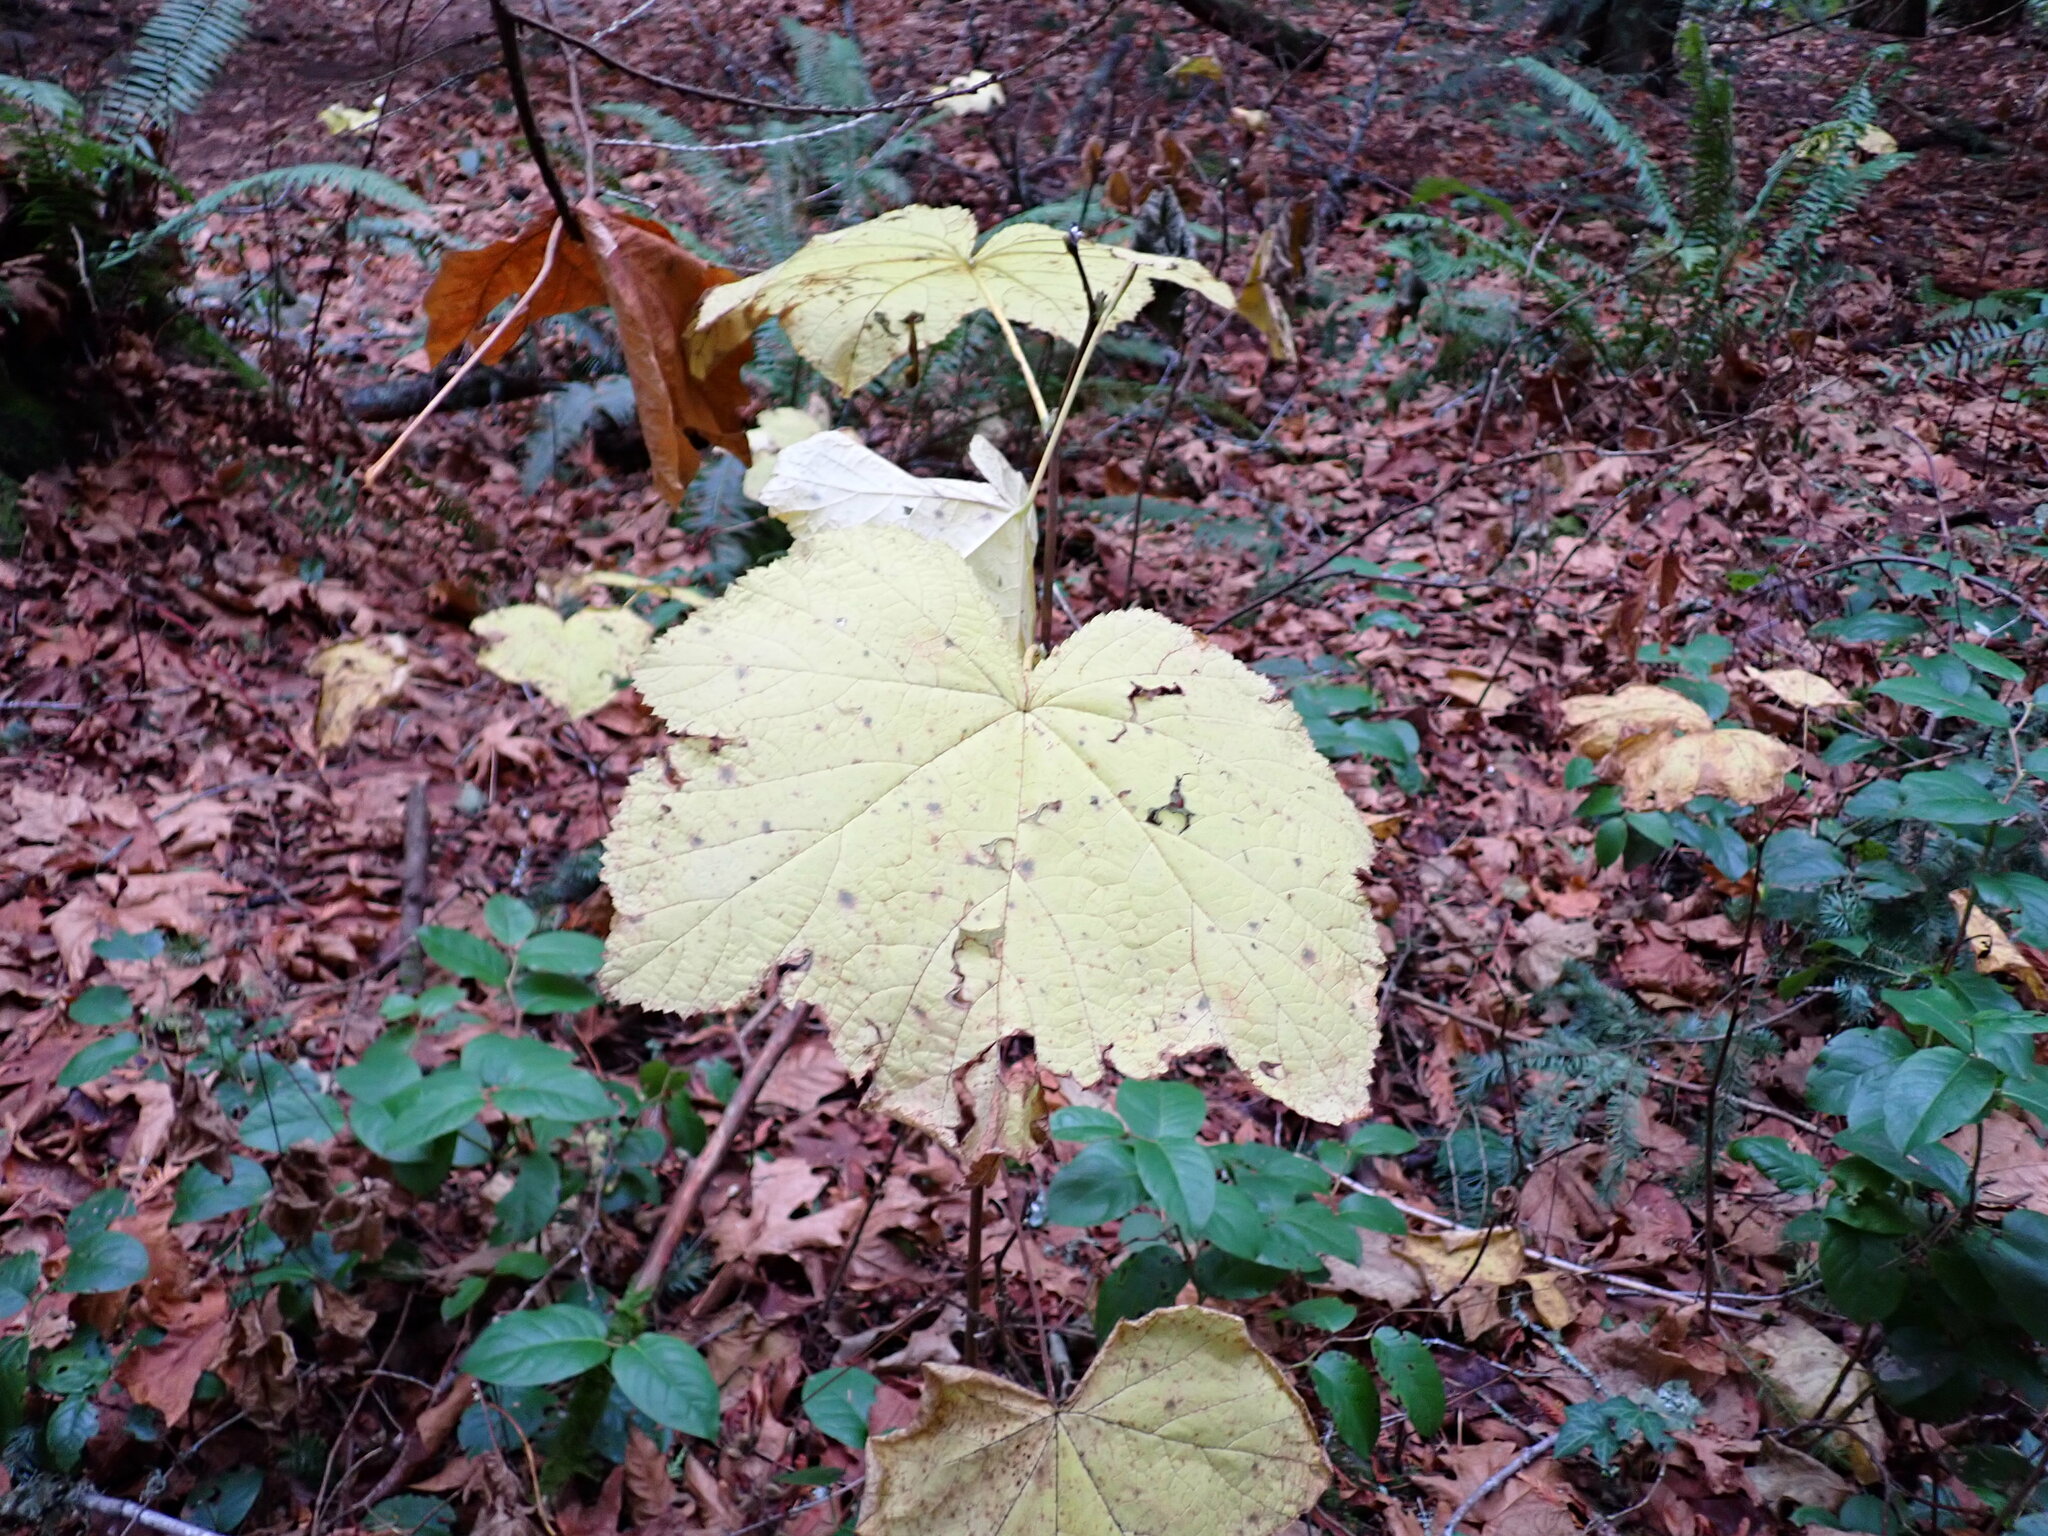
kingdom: Plantae
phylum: Tracheophyta
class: Magnoliopsida
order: Rosales
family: Rosaceae
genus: Rubus
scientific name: Rubus parviflorus
